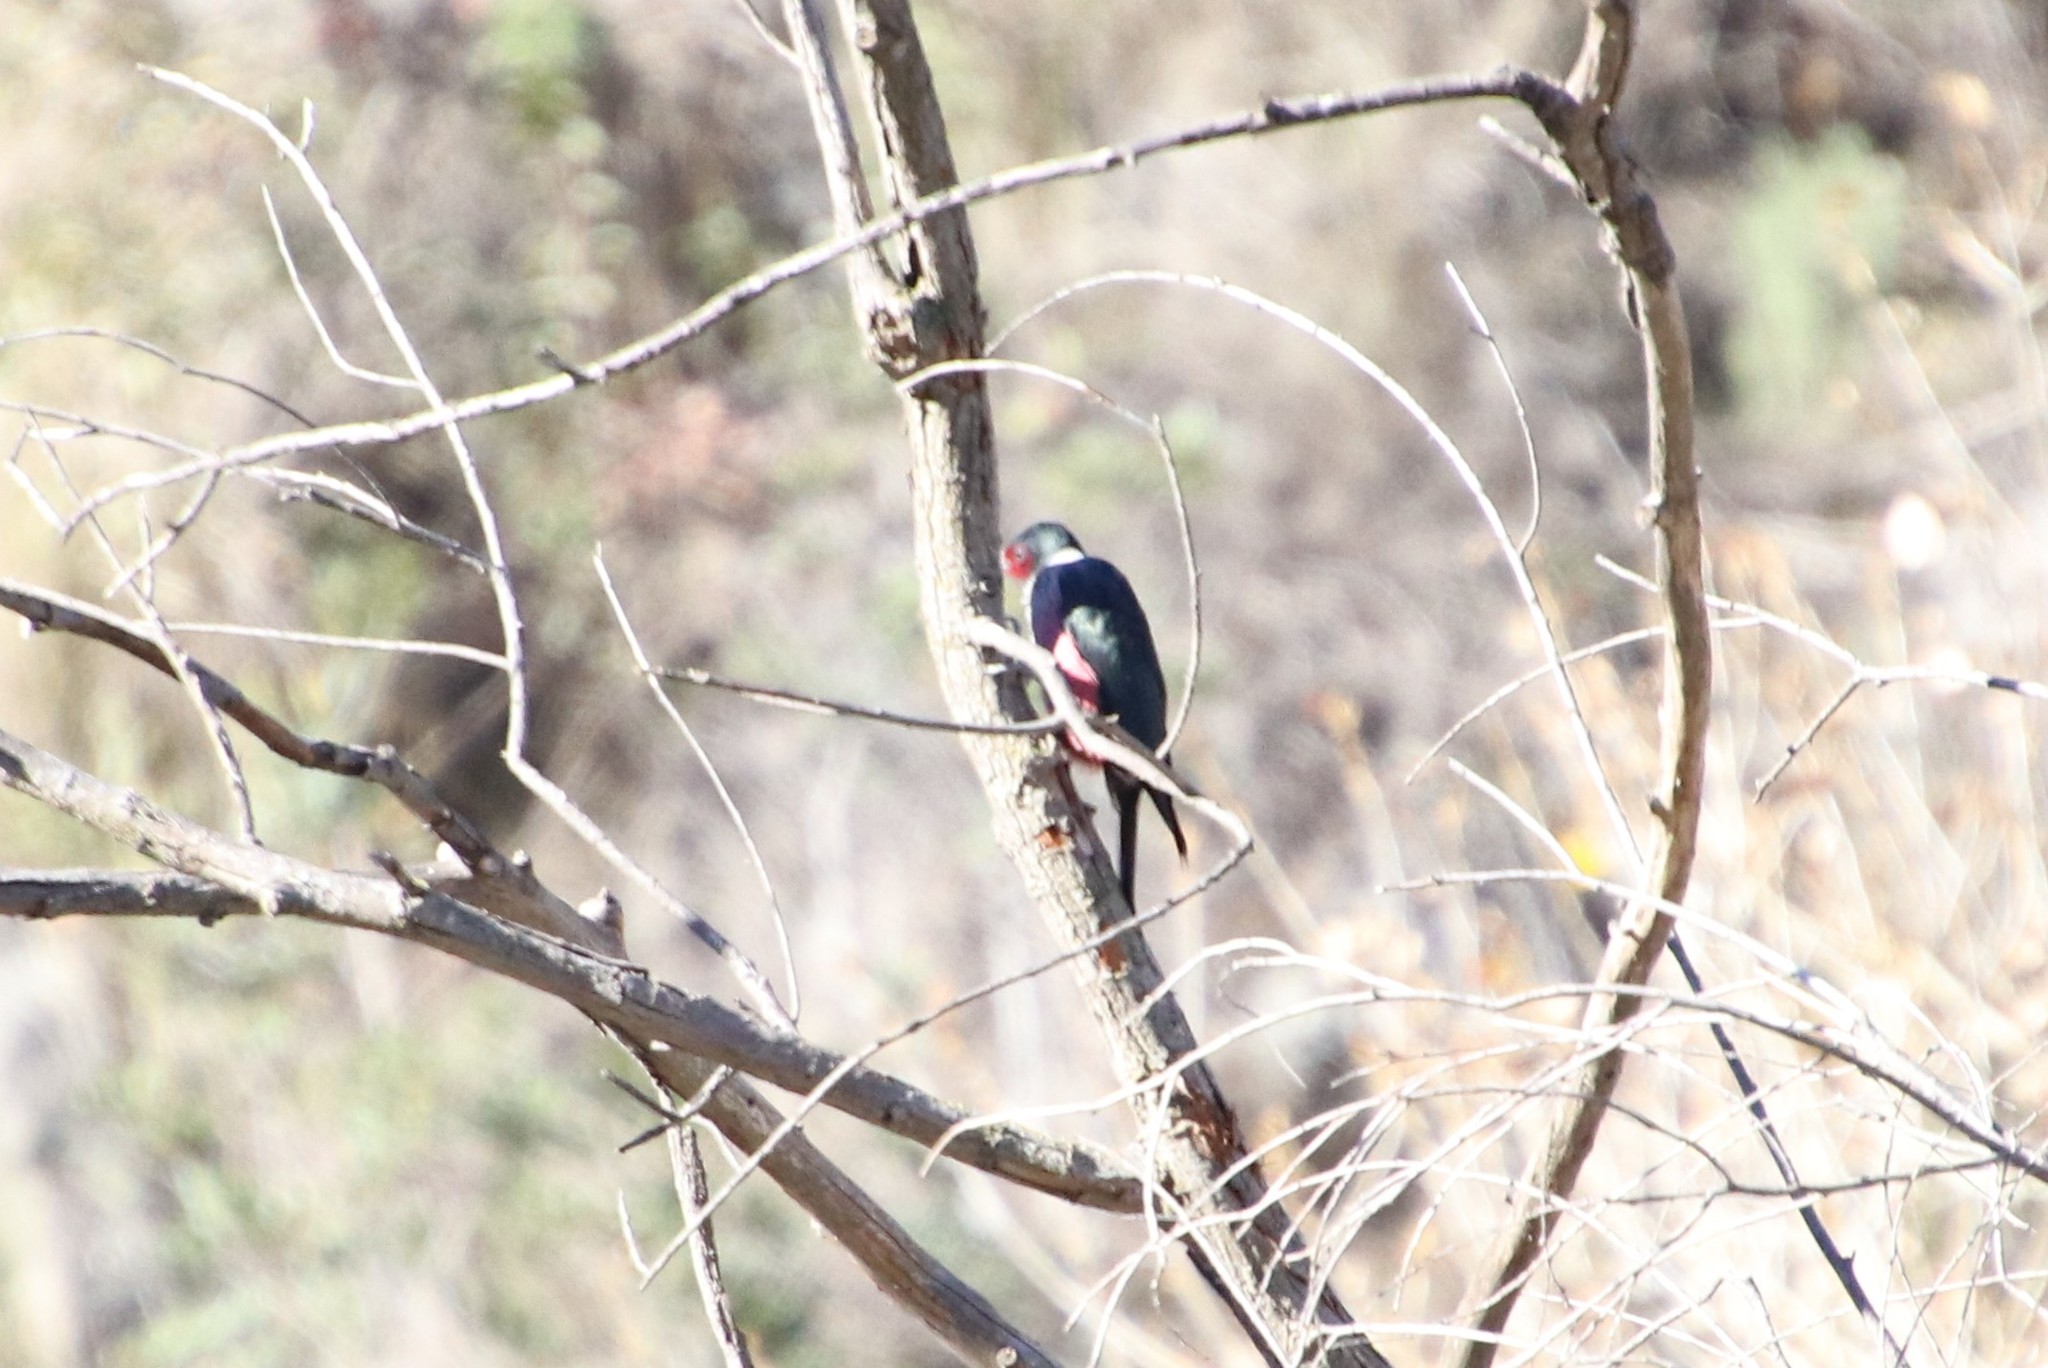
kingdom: Animalia
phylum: Chordata
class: Aves
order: Piciformes
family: Picidae
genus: Melanerpes
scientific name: Melanerpes lewis
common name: Lewis's woodpecker
